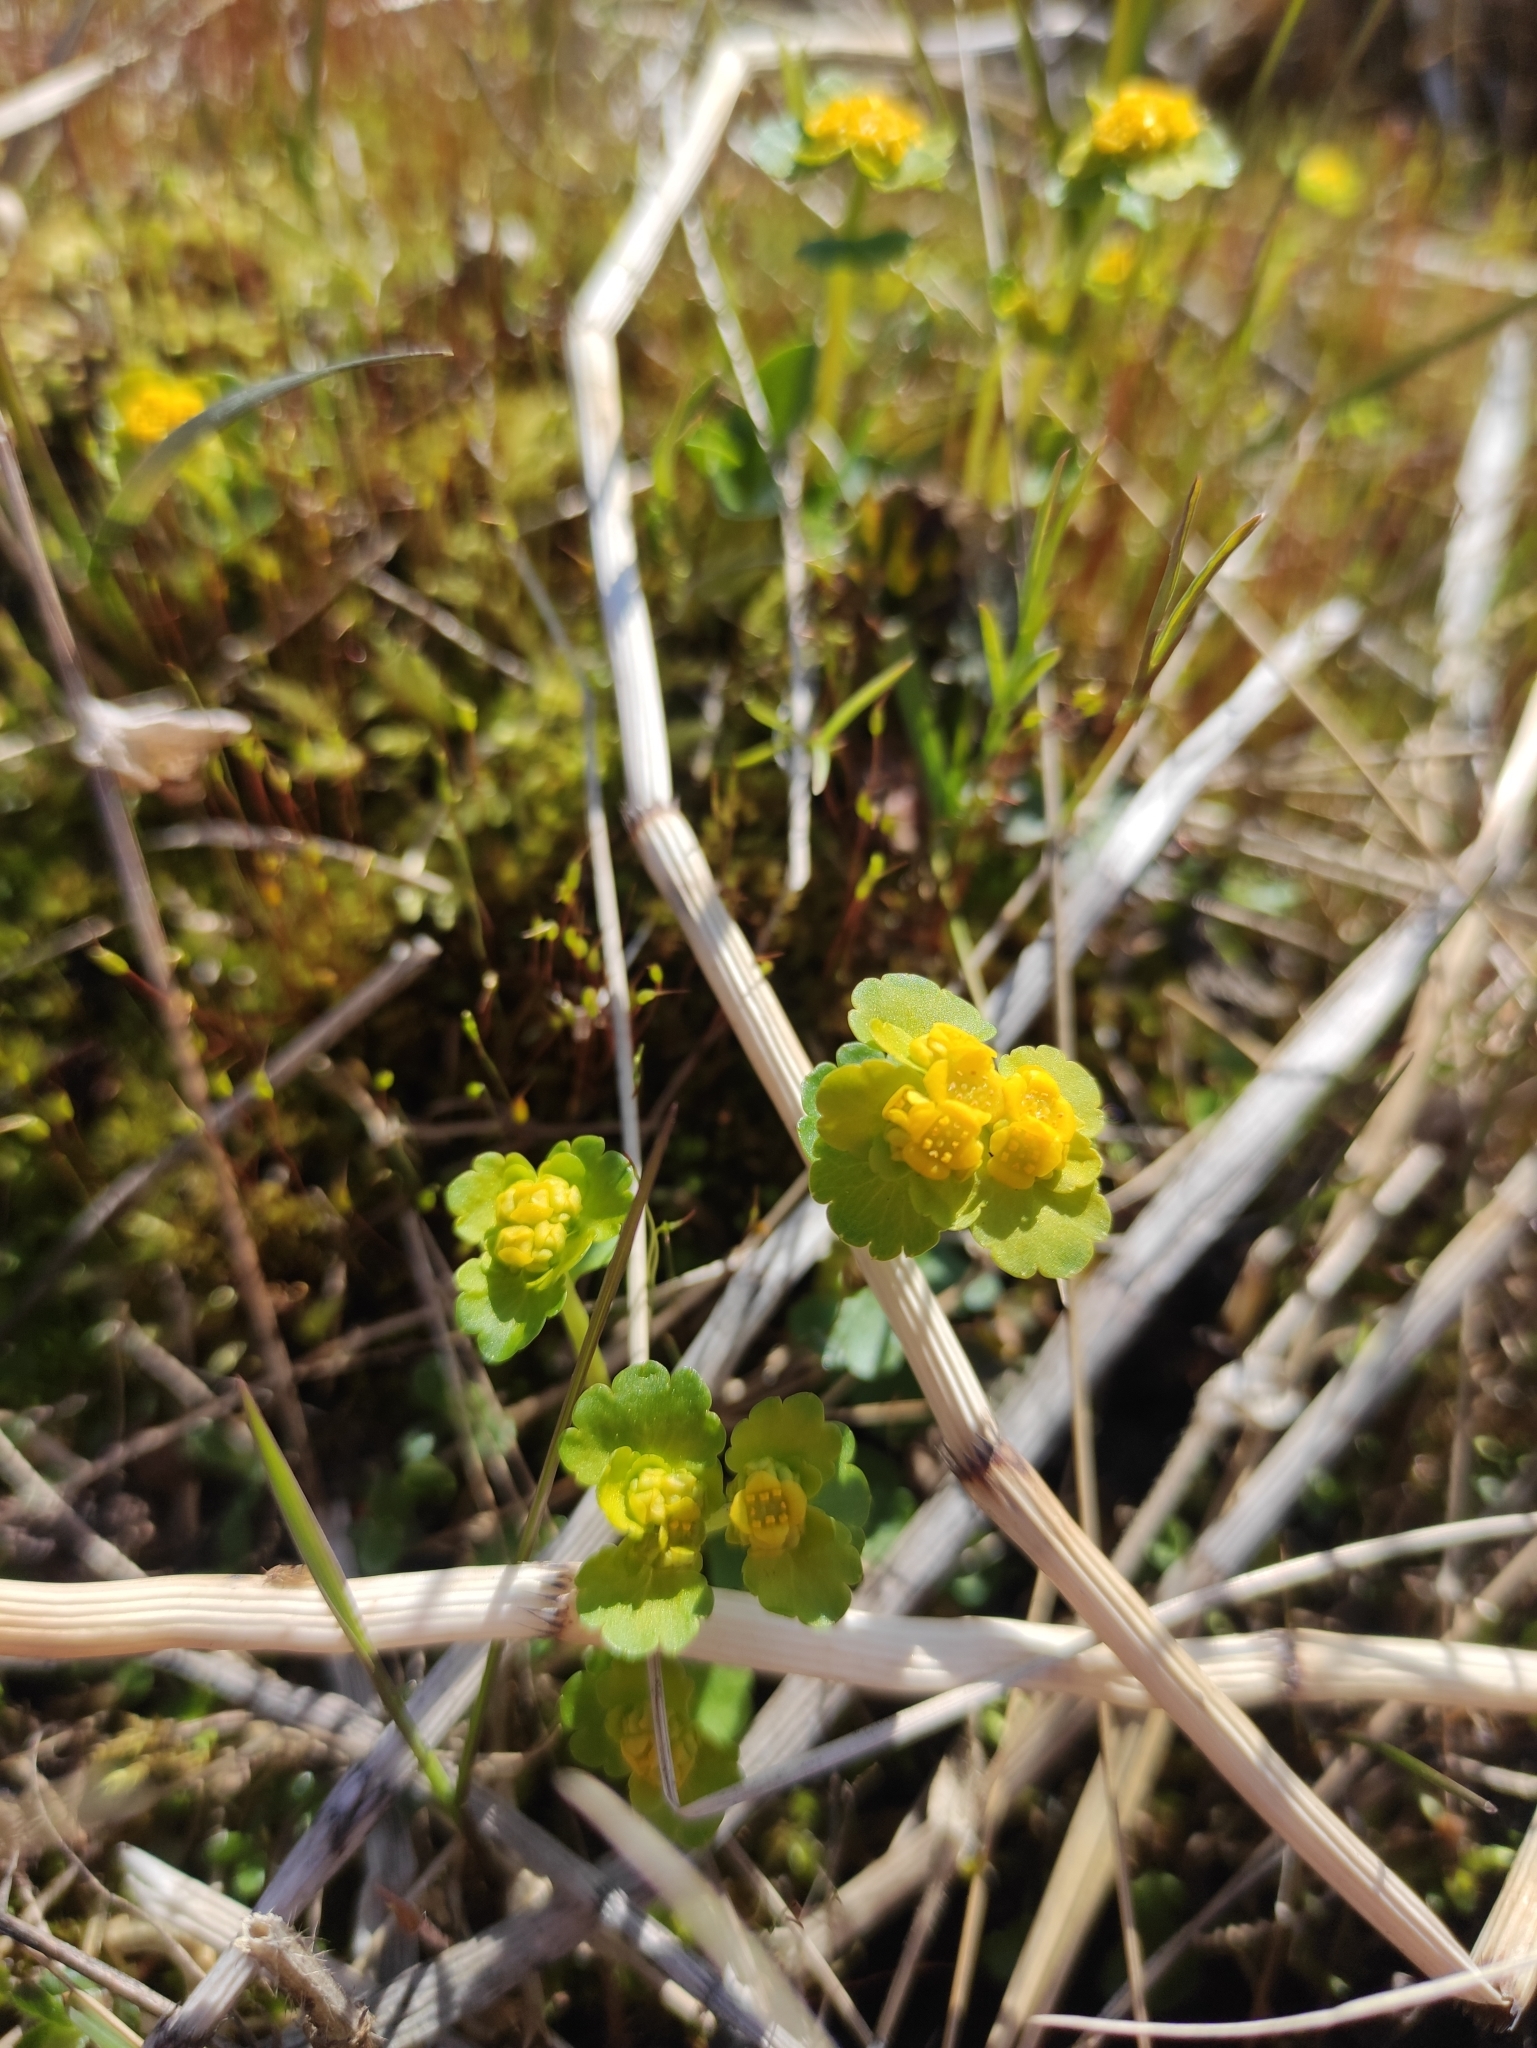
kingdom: Plantae
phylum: Tracheophyta
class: Magnoliopsida
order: Saxifragales
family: Saxifragaceae
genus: Chrysosplenium
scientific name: Chrysosplenium sibiricum
